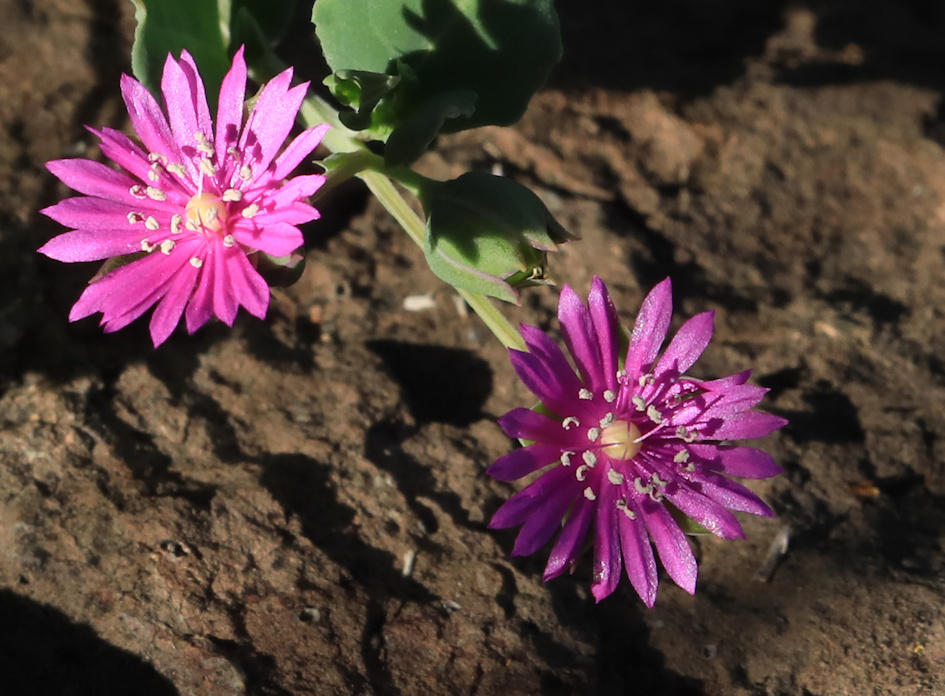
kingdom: Plantae
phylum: Tracheophyta
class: Magnoliopsida
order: Caryophyllales
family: Corbichoniaceae
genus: Corbichonia
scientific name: Corbichonia decumbens
